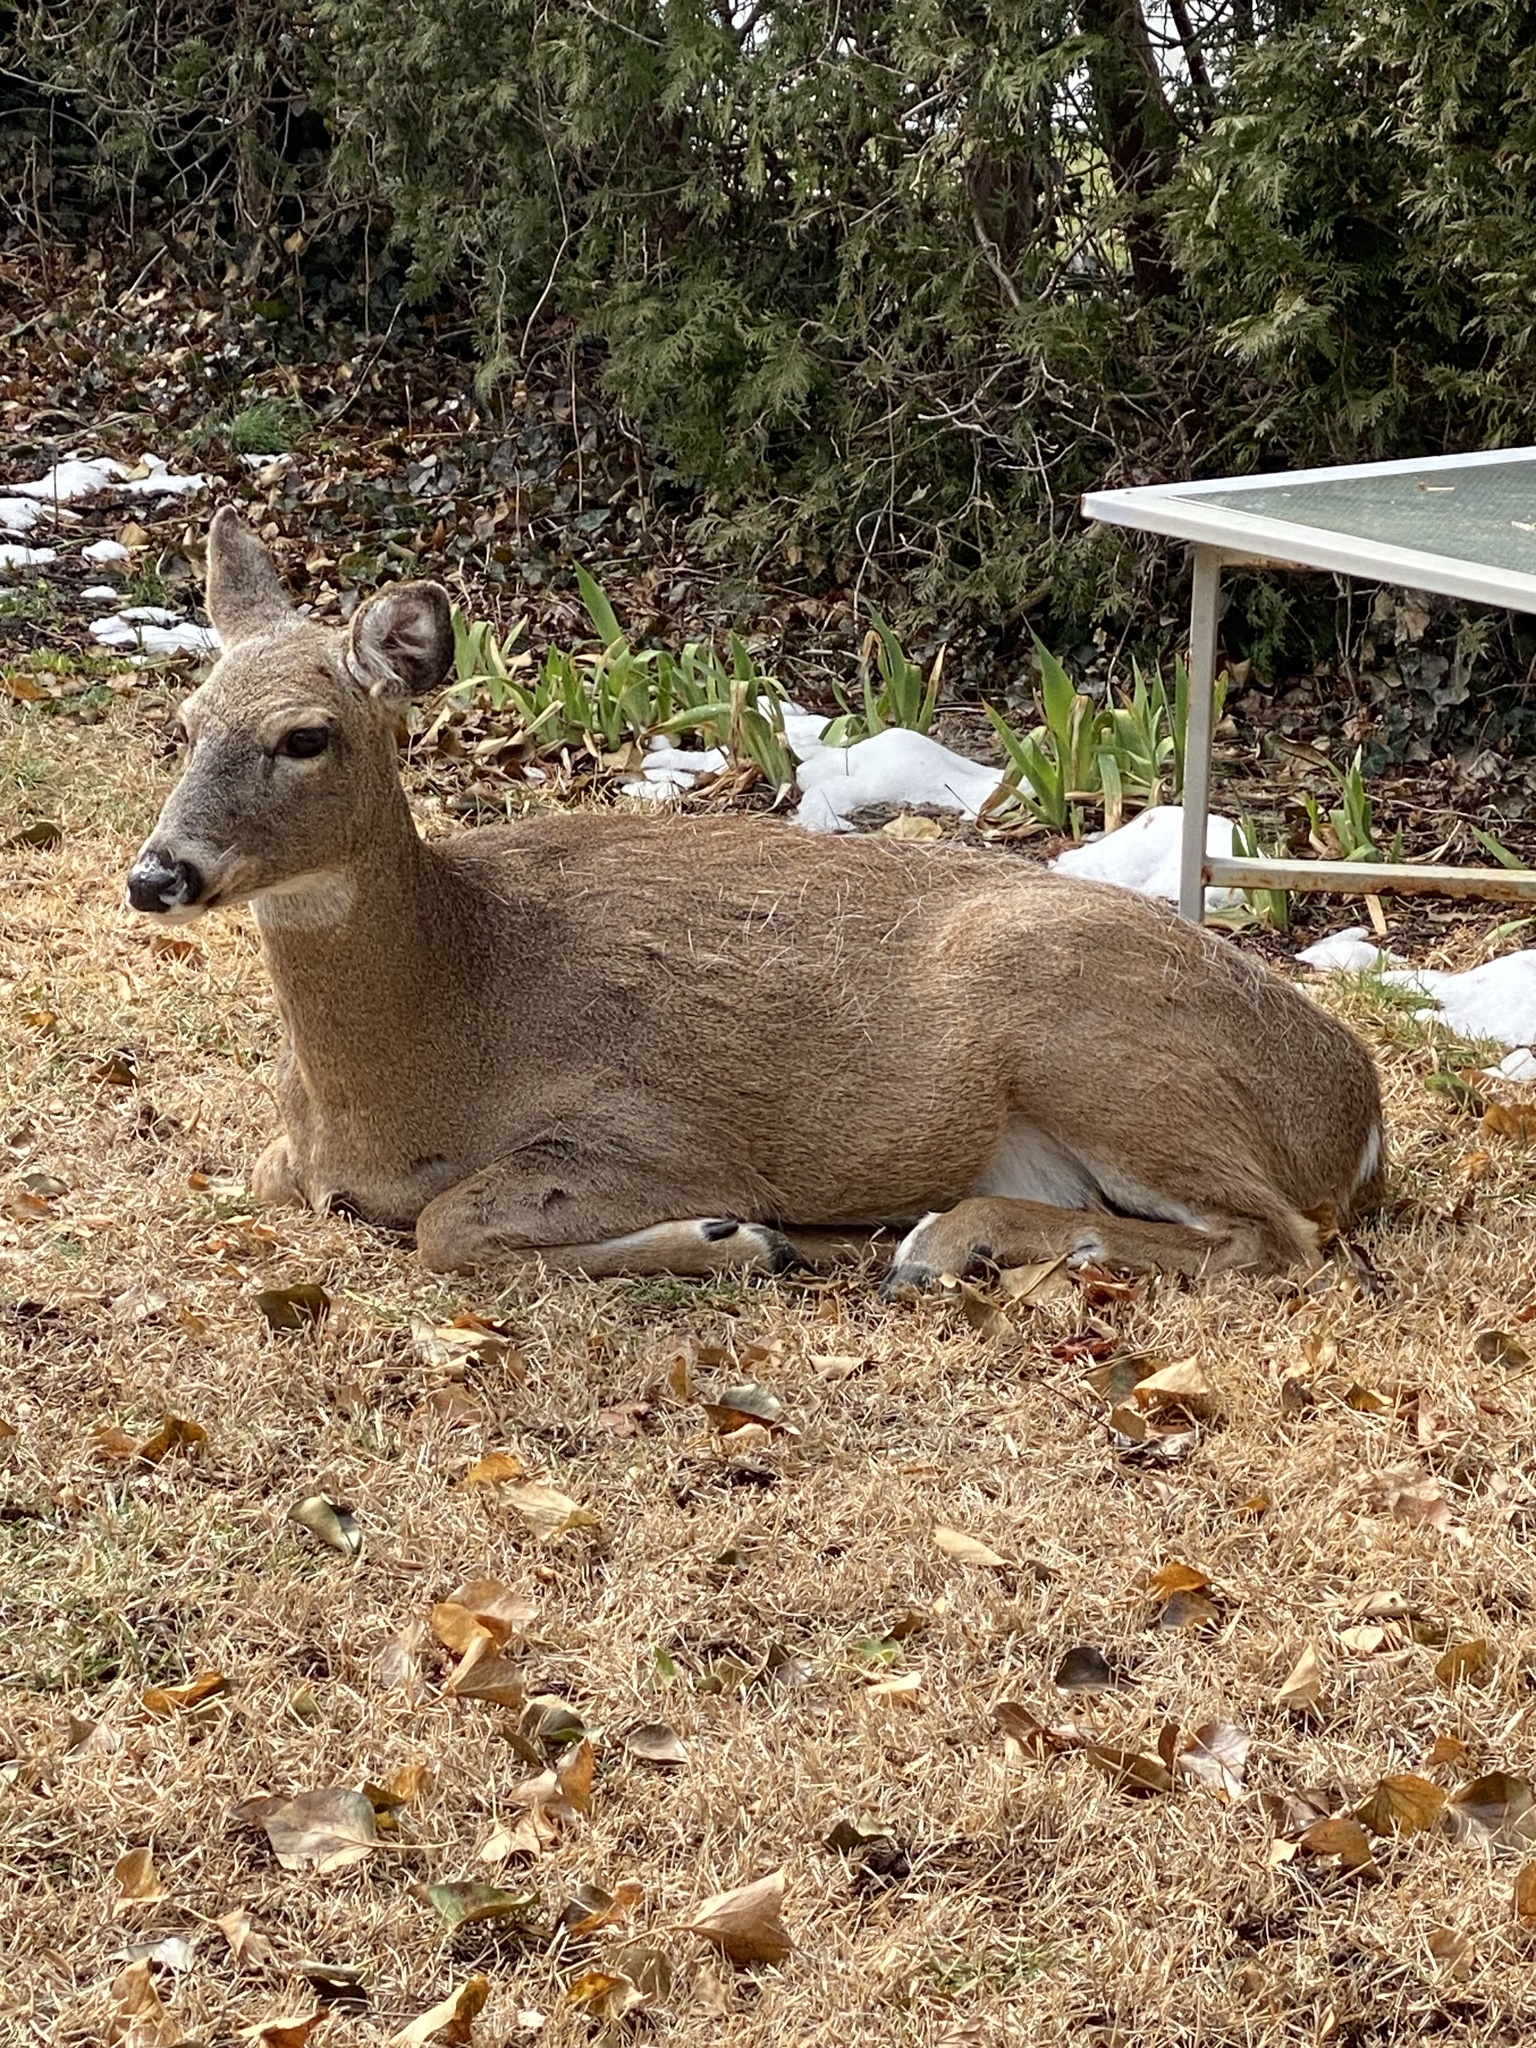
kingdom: Animalia
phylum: Chordata
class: Mammalia
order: Artiodactyla
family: Cervidae
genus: Odocoileus
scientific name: Odocoileus virginianus
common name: White-tailed deer
